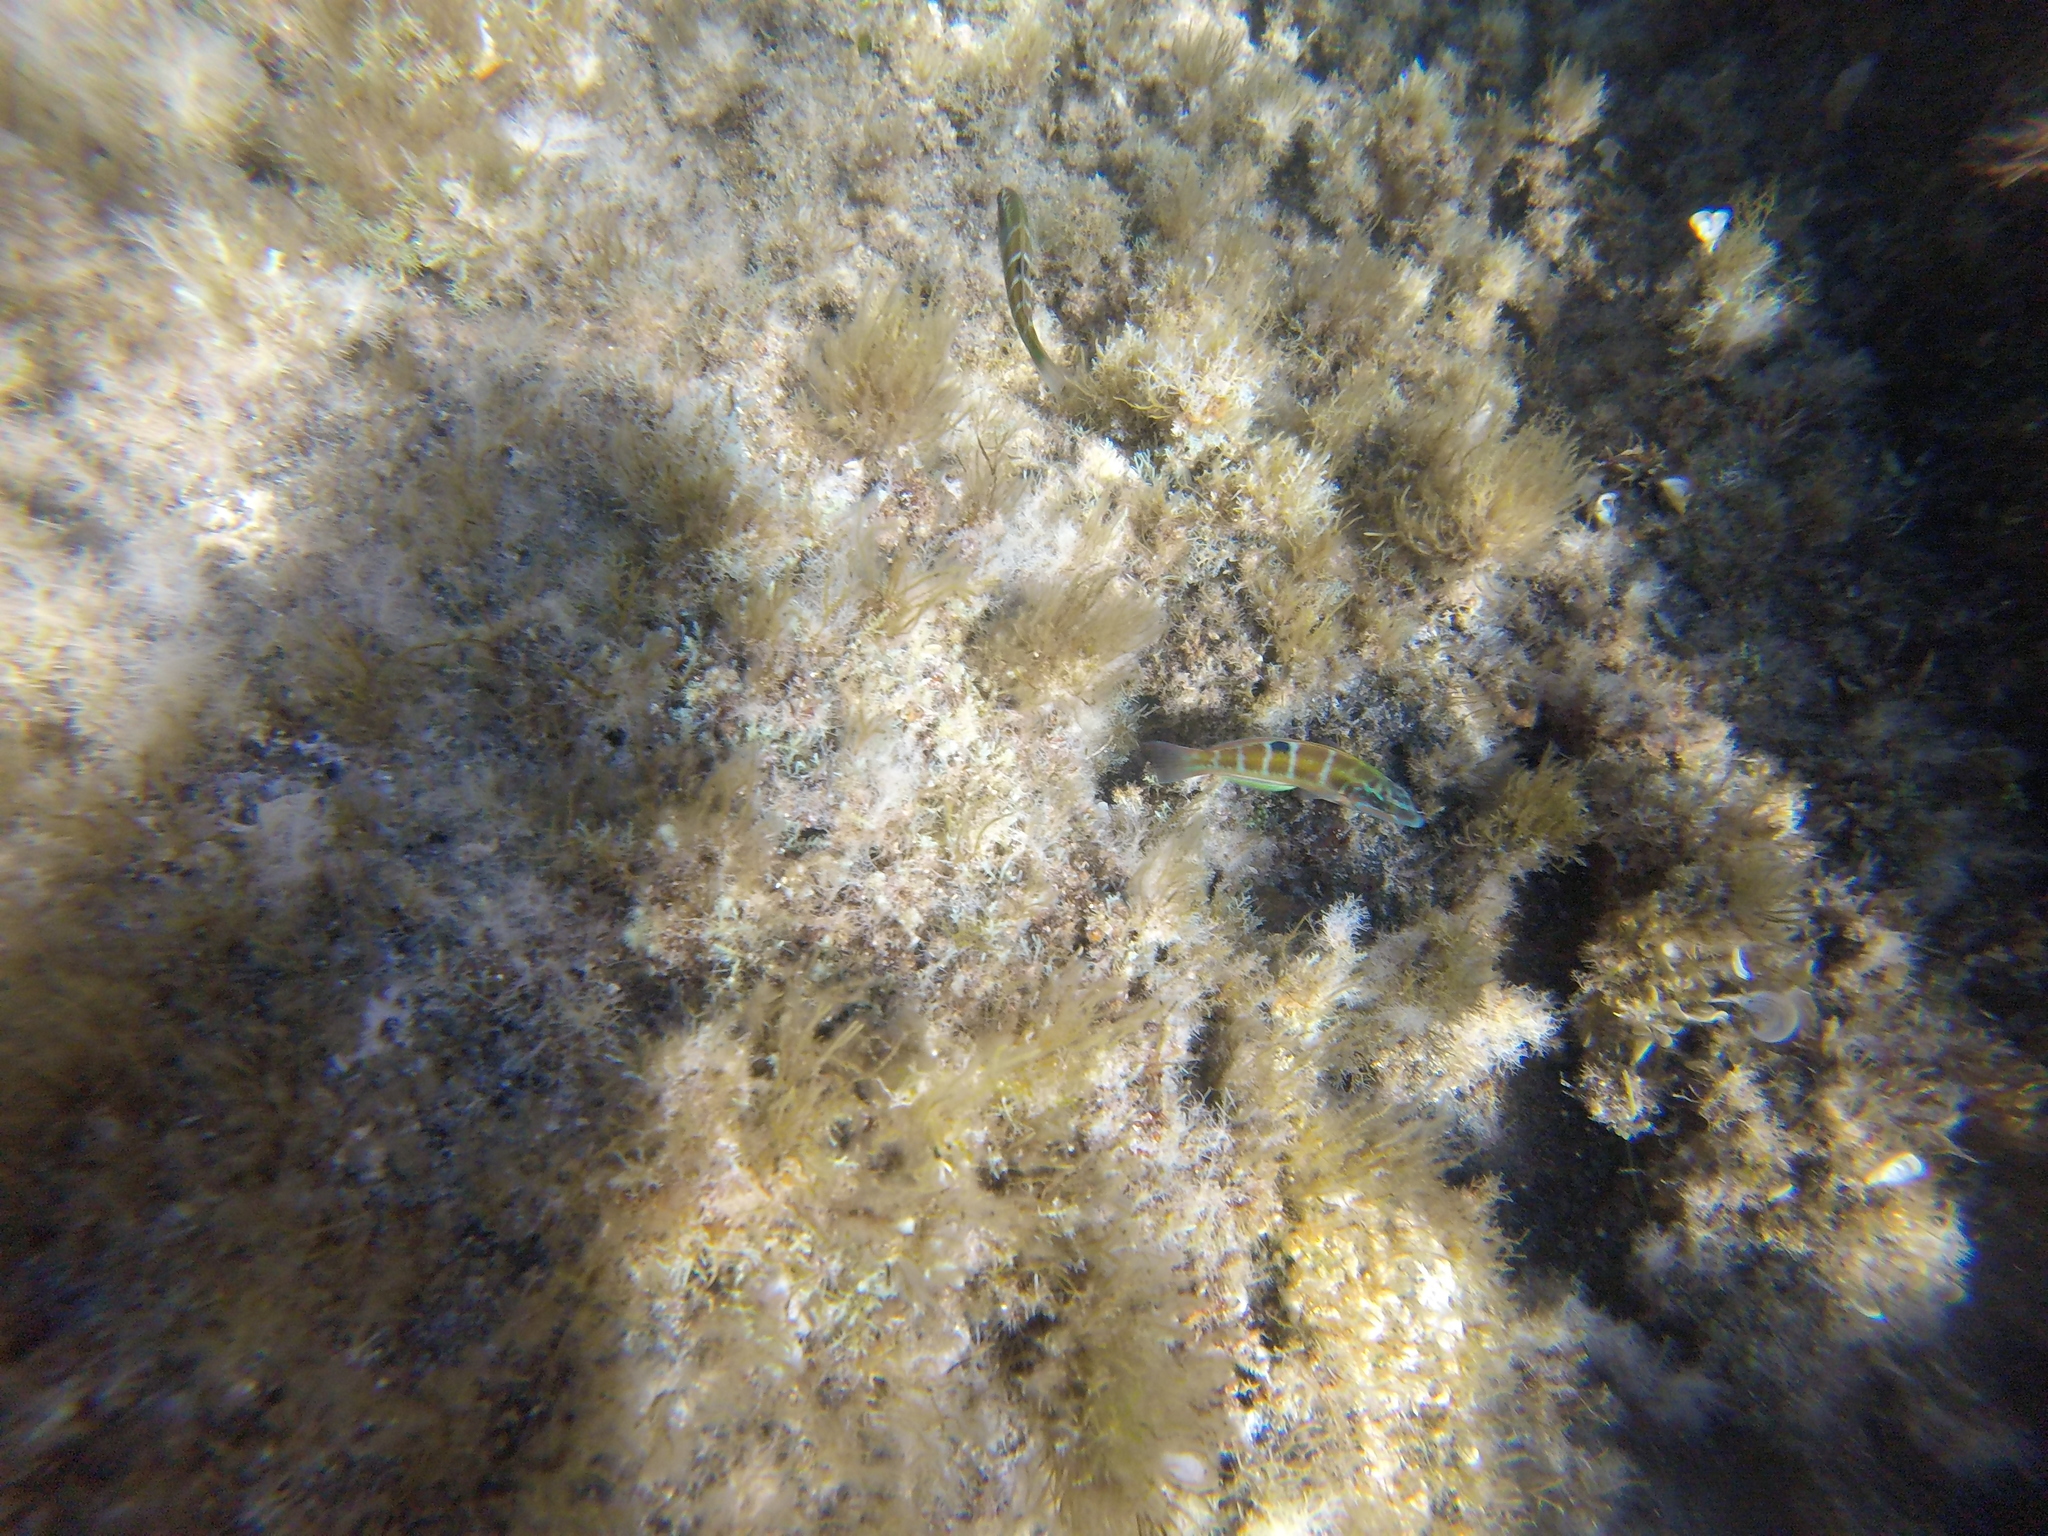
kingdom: Animalia
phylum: Chordata
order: Perciformes
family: Labridae
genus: Thalassoma
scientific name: Thalassoma pavo
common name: Ornate wrasse
